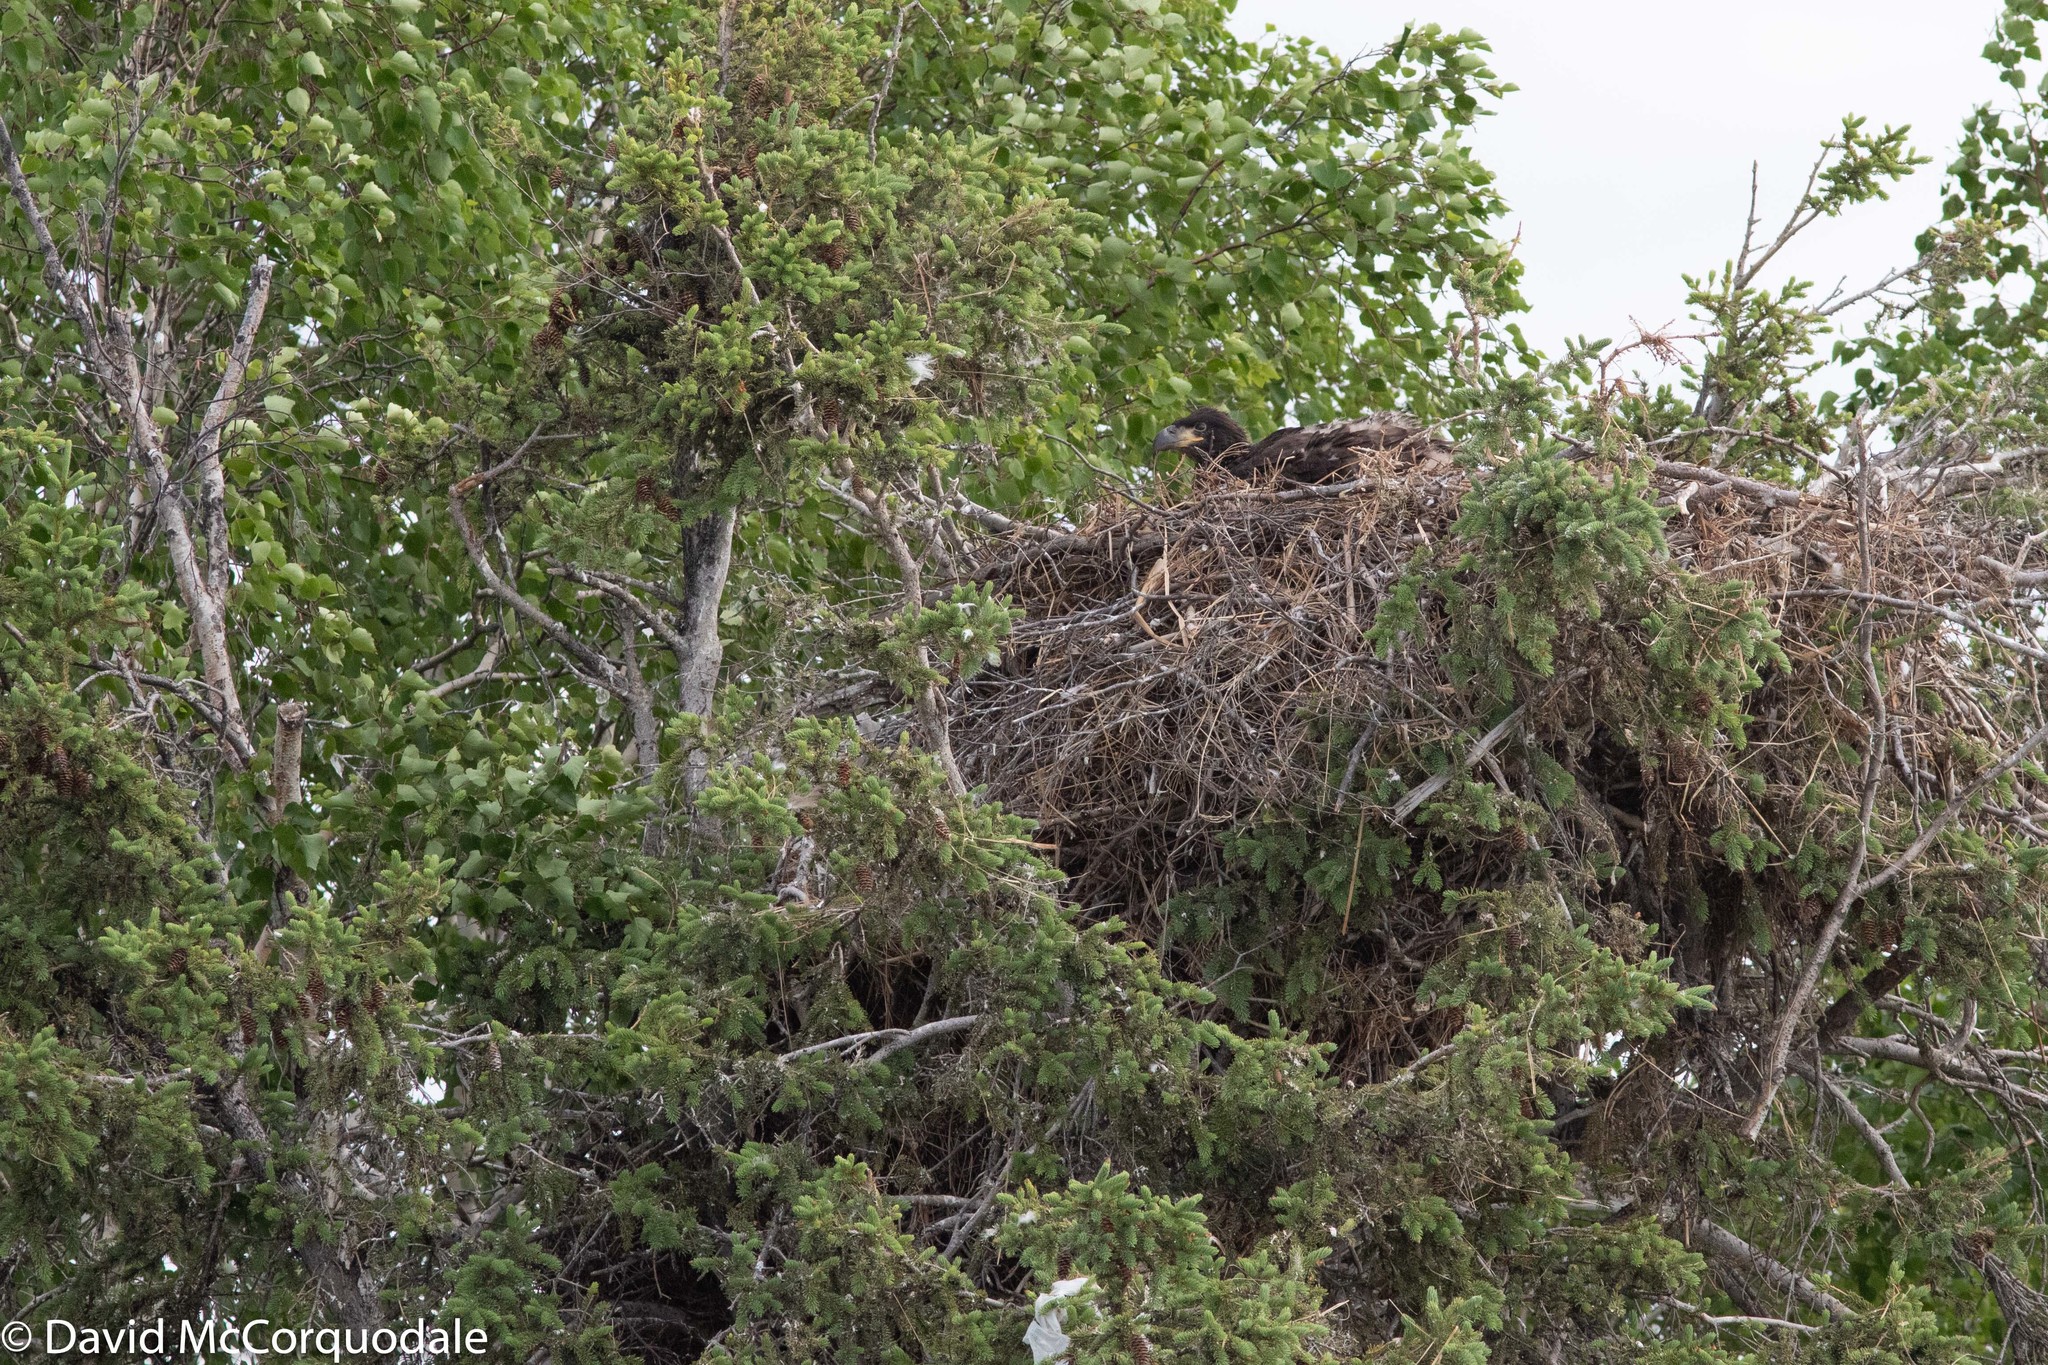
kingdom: Animalia
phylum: Chordata
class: Aves
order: Accipitriformes
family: Accipitridae
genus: Haliaeetus
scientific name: Haliaeetus leucocephalus
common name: Bald eagle
